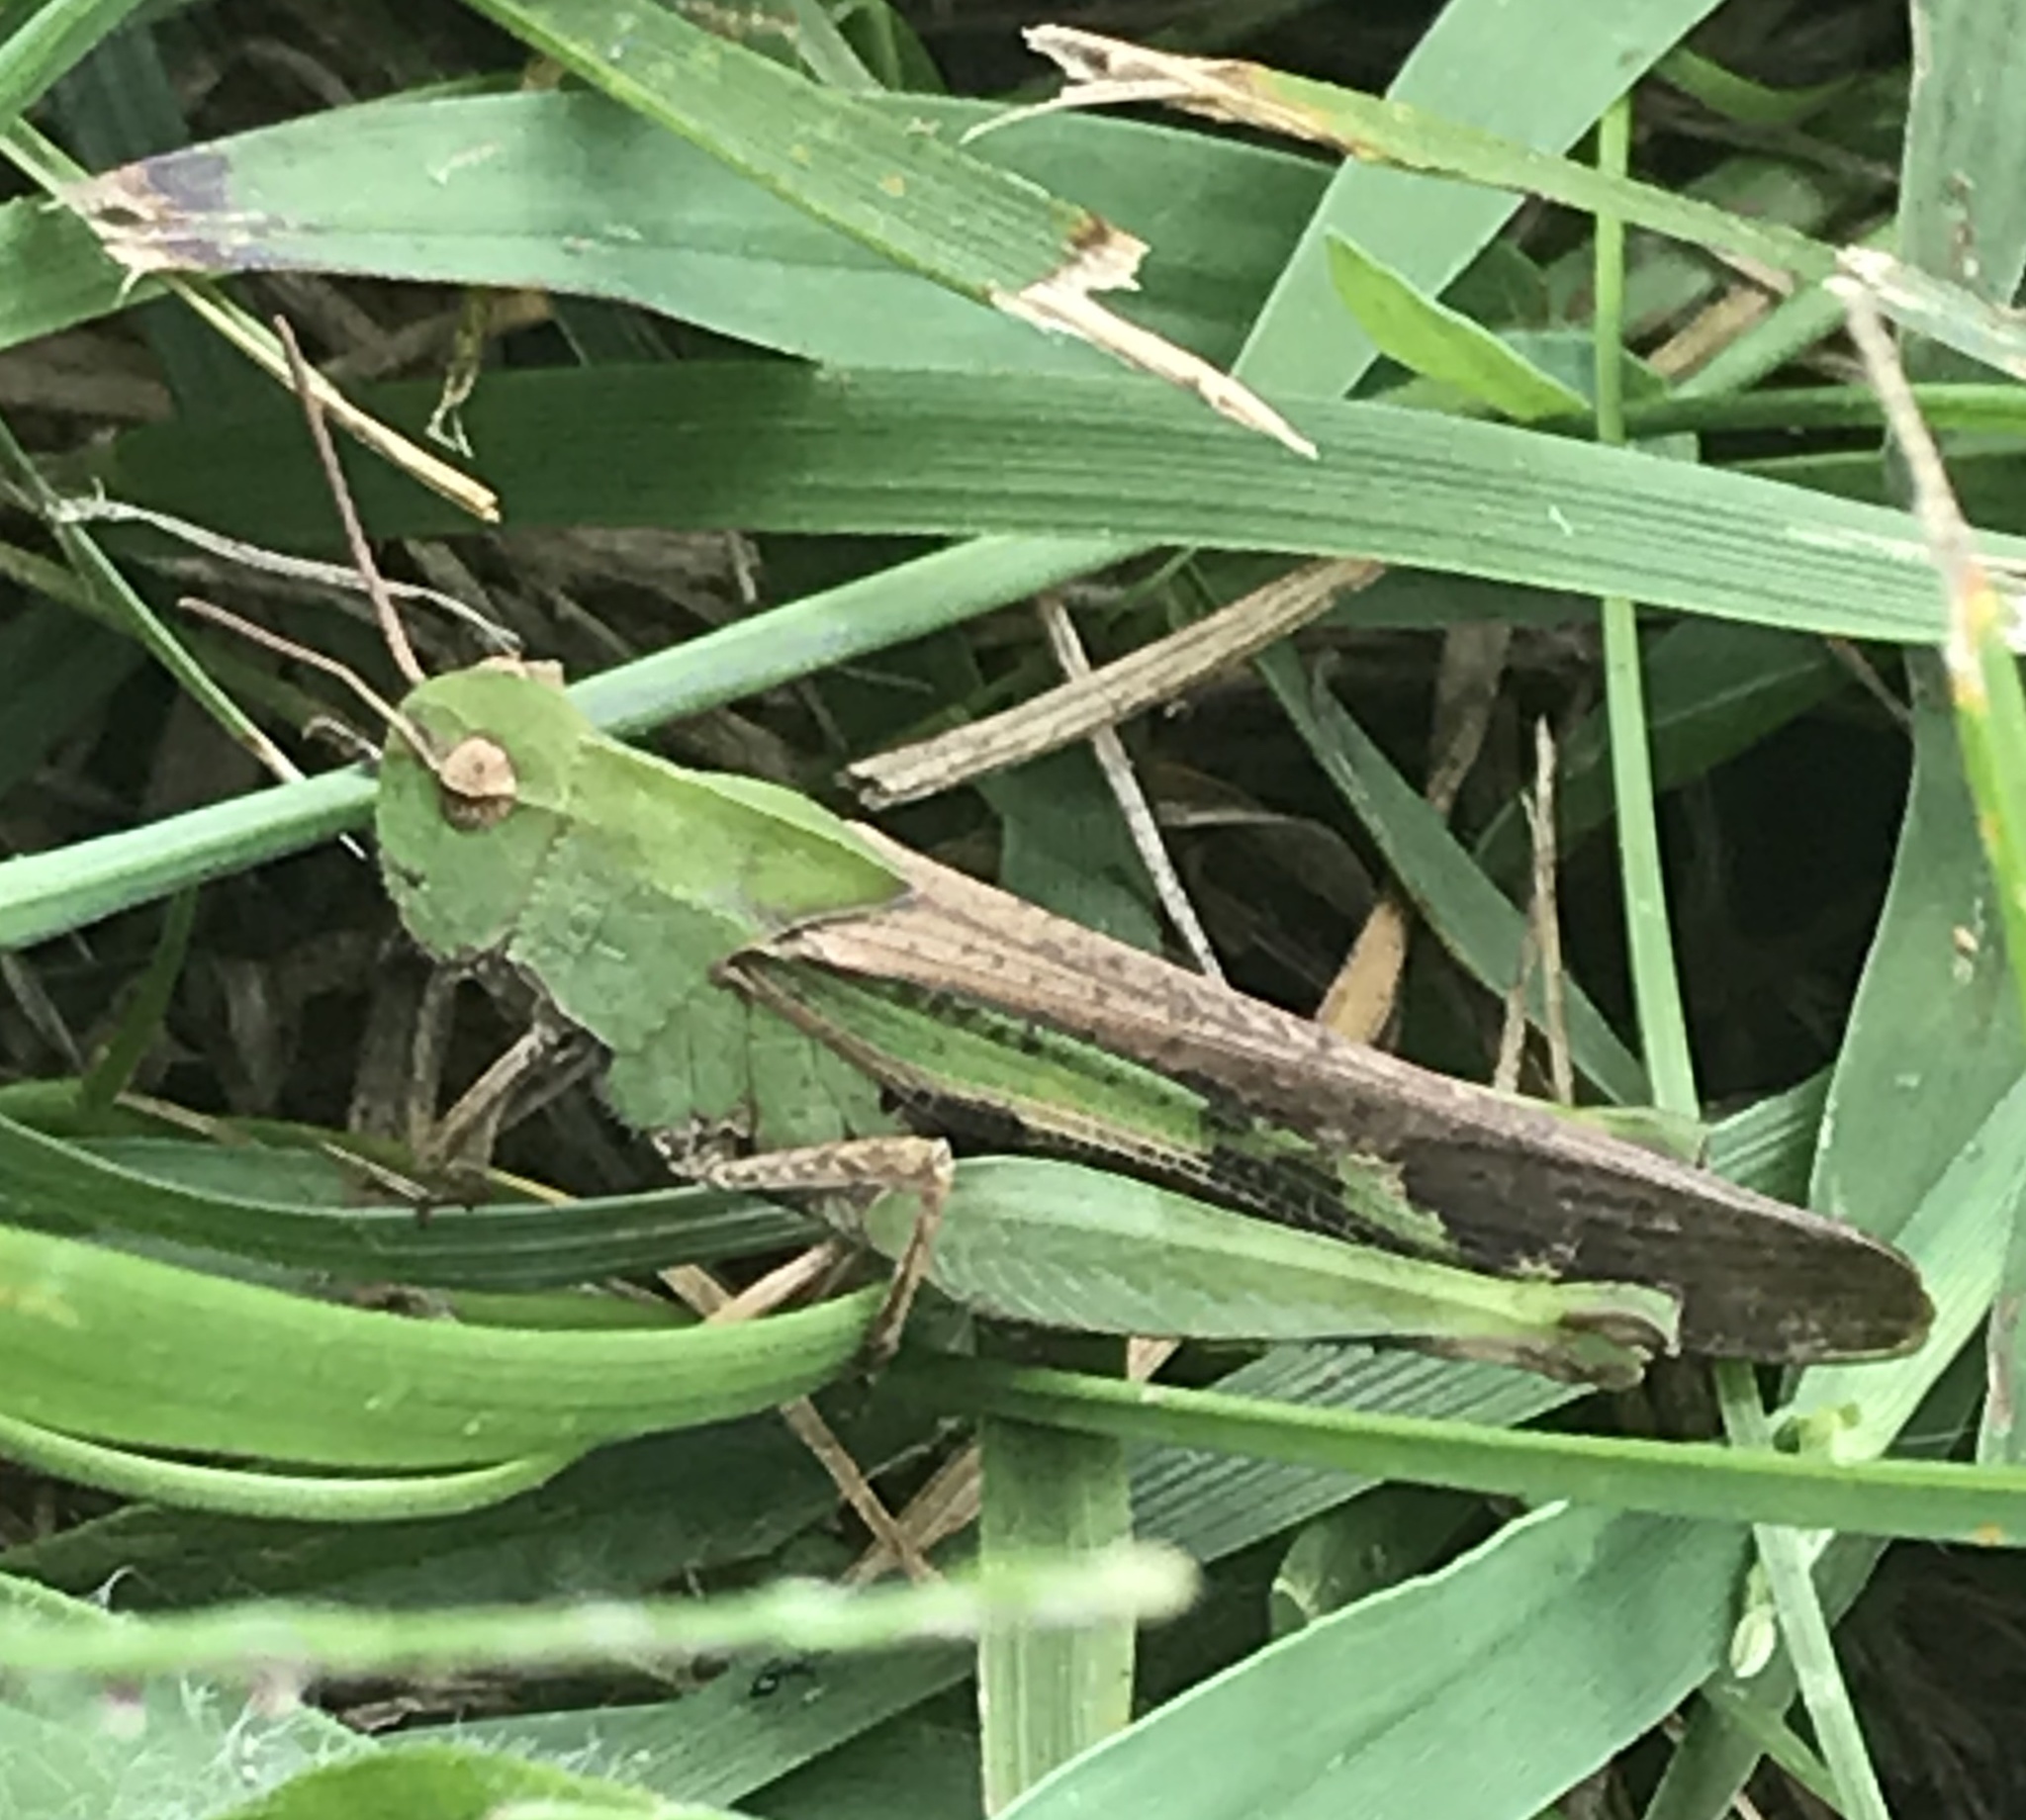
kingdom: Animalia
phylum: Arthropoda
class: Insecta
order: Orthoptera
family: Acrididae
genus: Chortophaga
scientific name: Chortophaga viridifasciata
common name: Green-striped grasshopper
